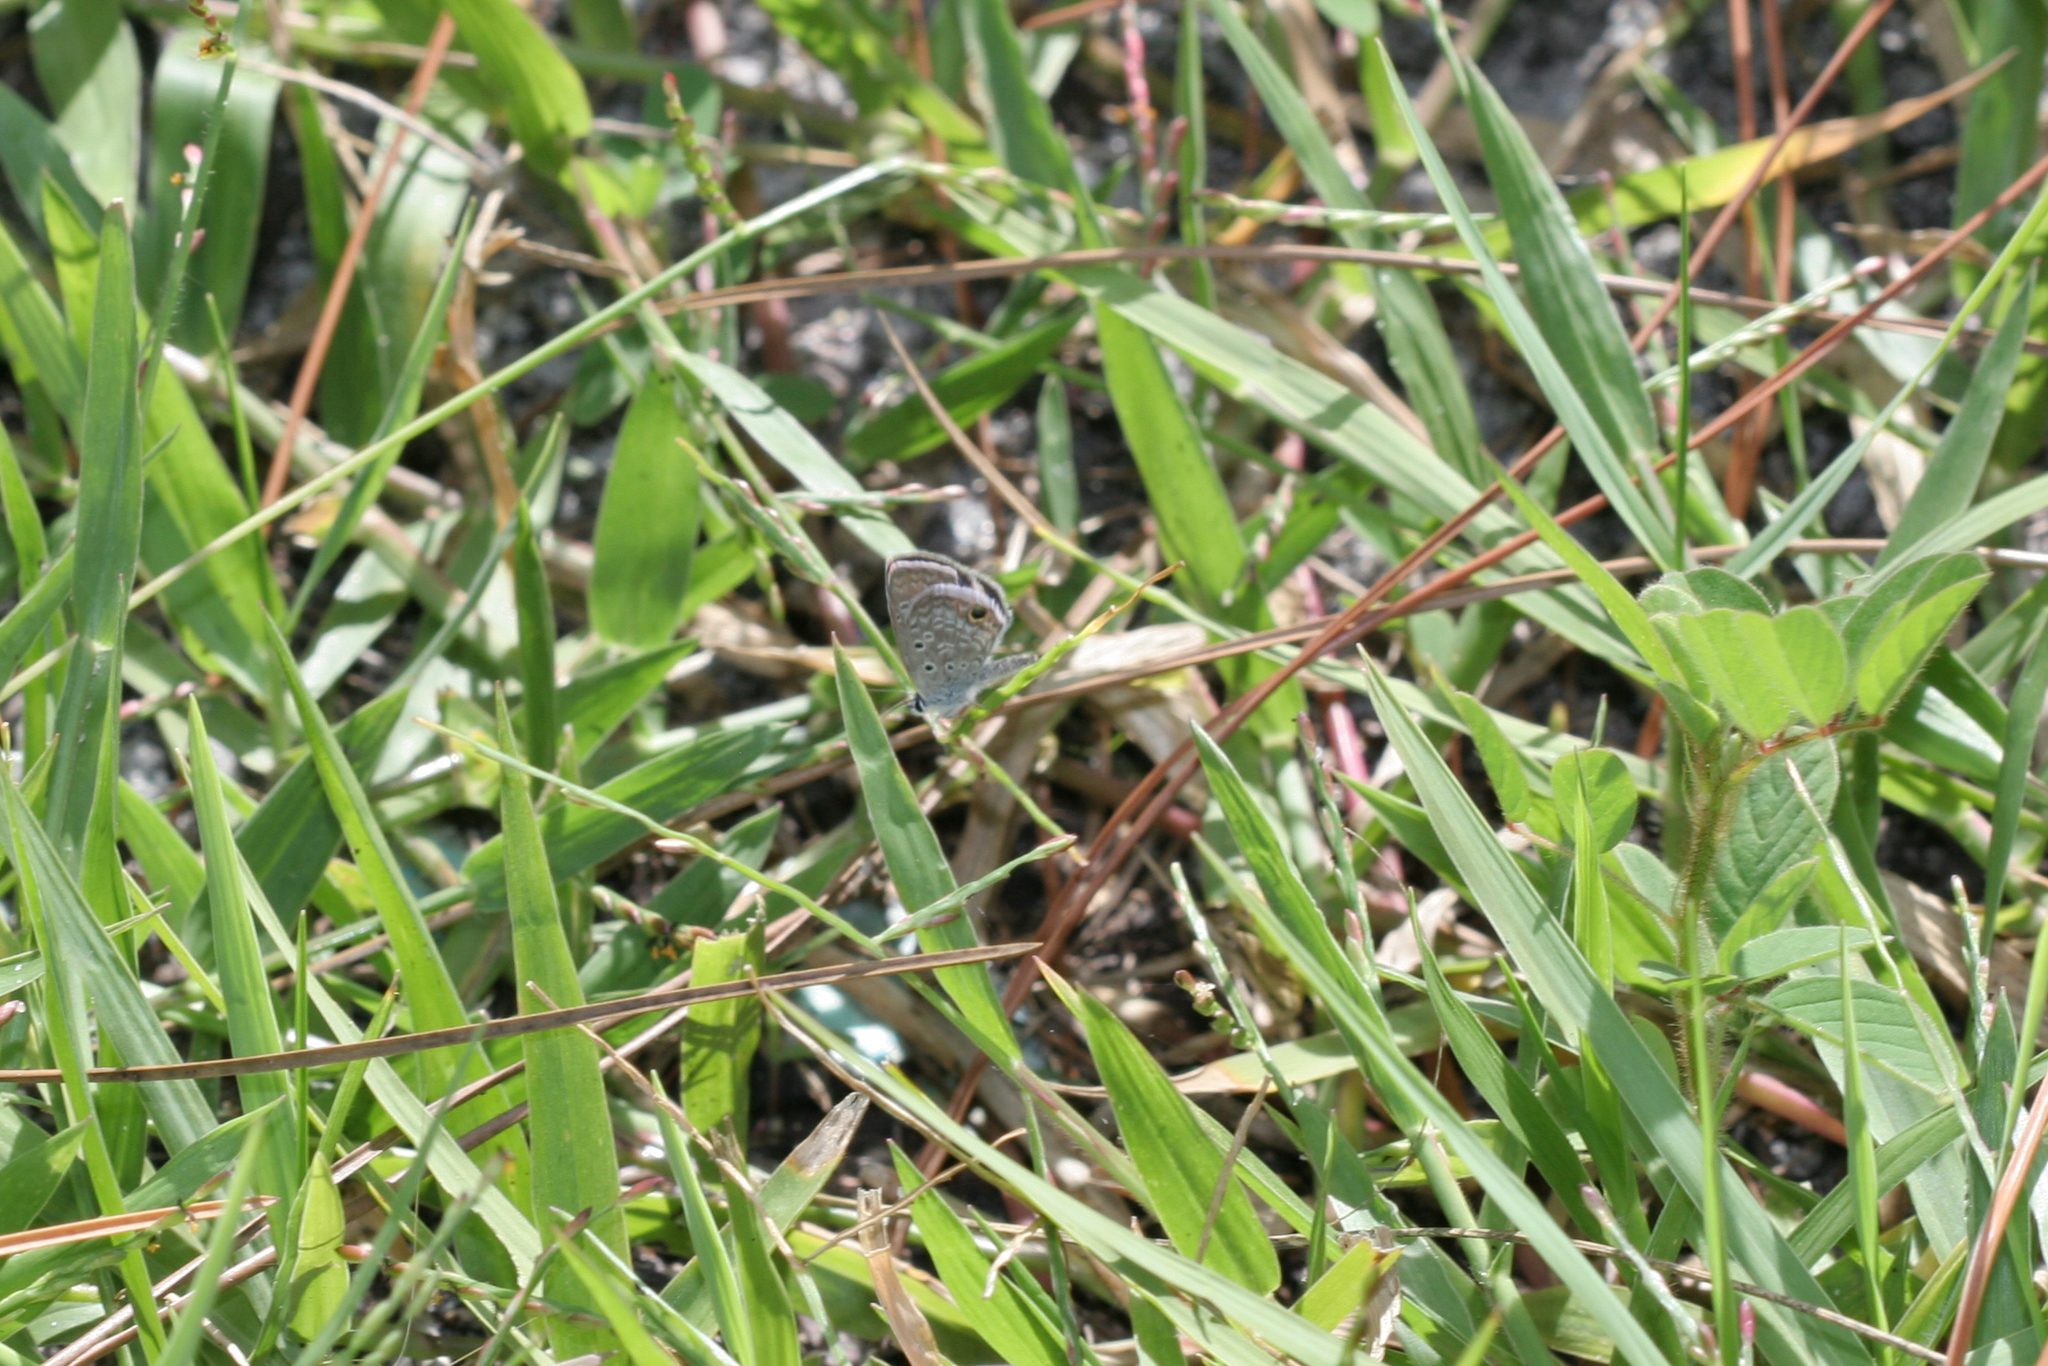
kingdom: Animalia
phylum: Arthropoda
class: Insecta
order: Lepidoptera
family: Lycaenidae
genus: Hemiargus
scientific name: Hemiargus ceraunus
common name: Ceraunus blue
